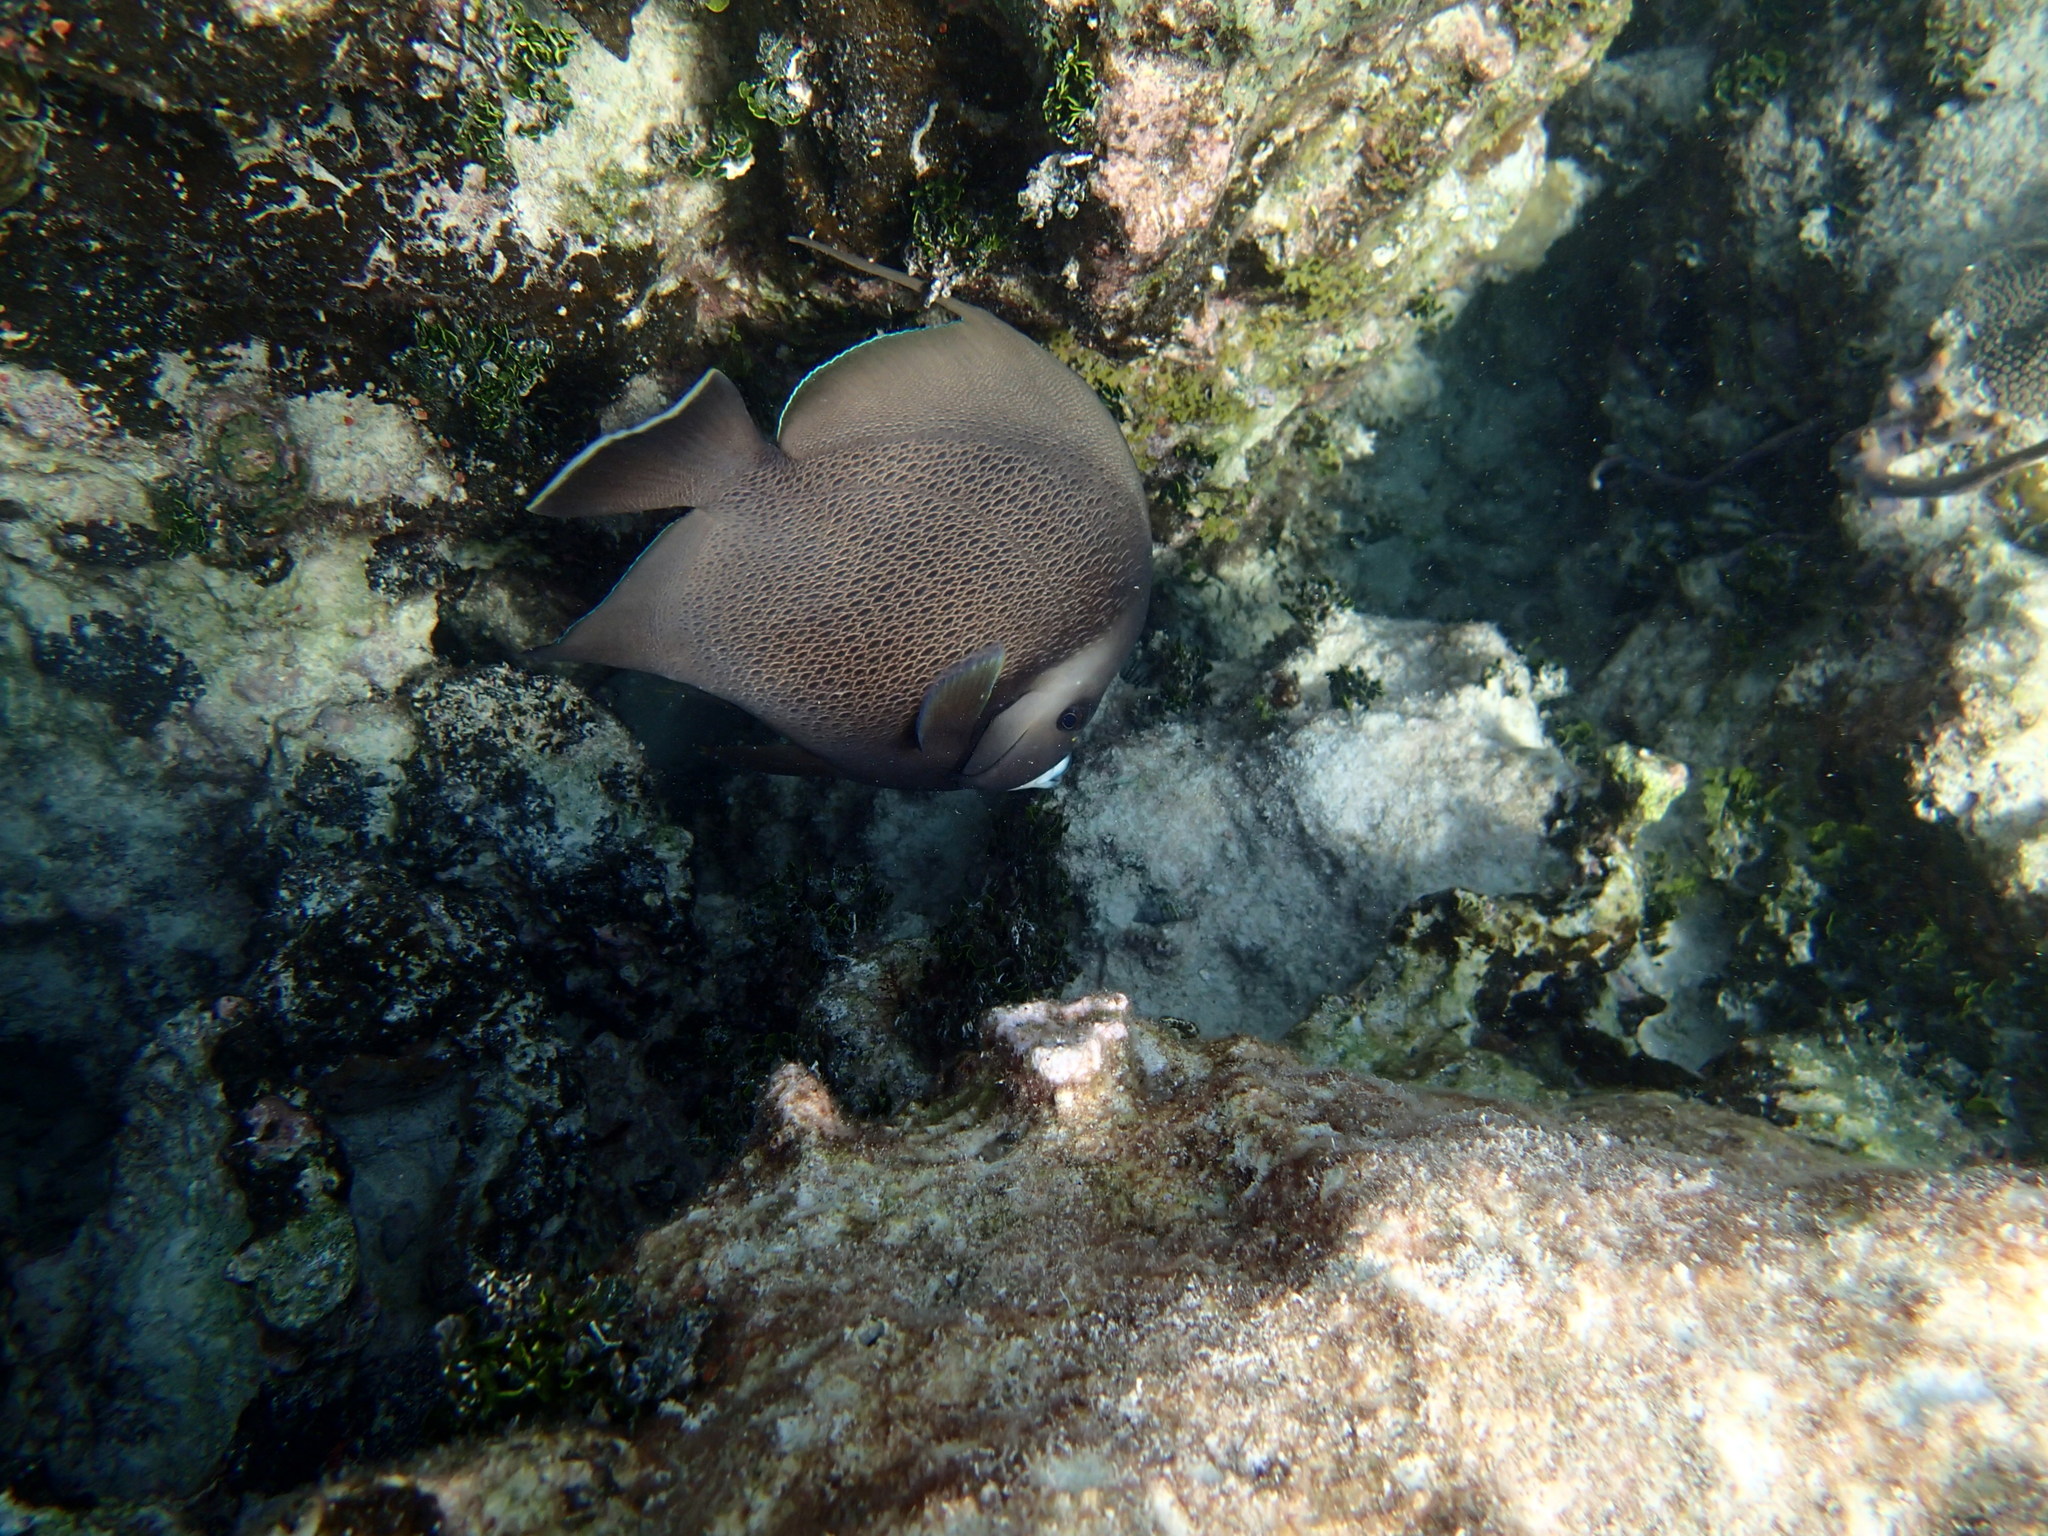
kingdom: Animalia
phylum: Chordata
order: Perciformes
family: Pomacanthidae
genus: Pomacanthus
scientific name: Pomacanthus arcuatus
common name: Gray angelfish
